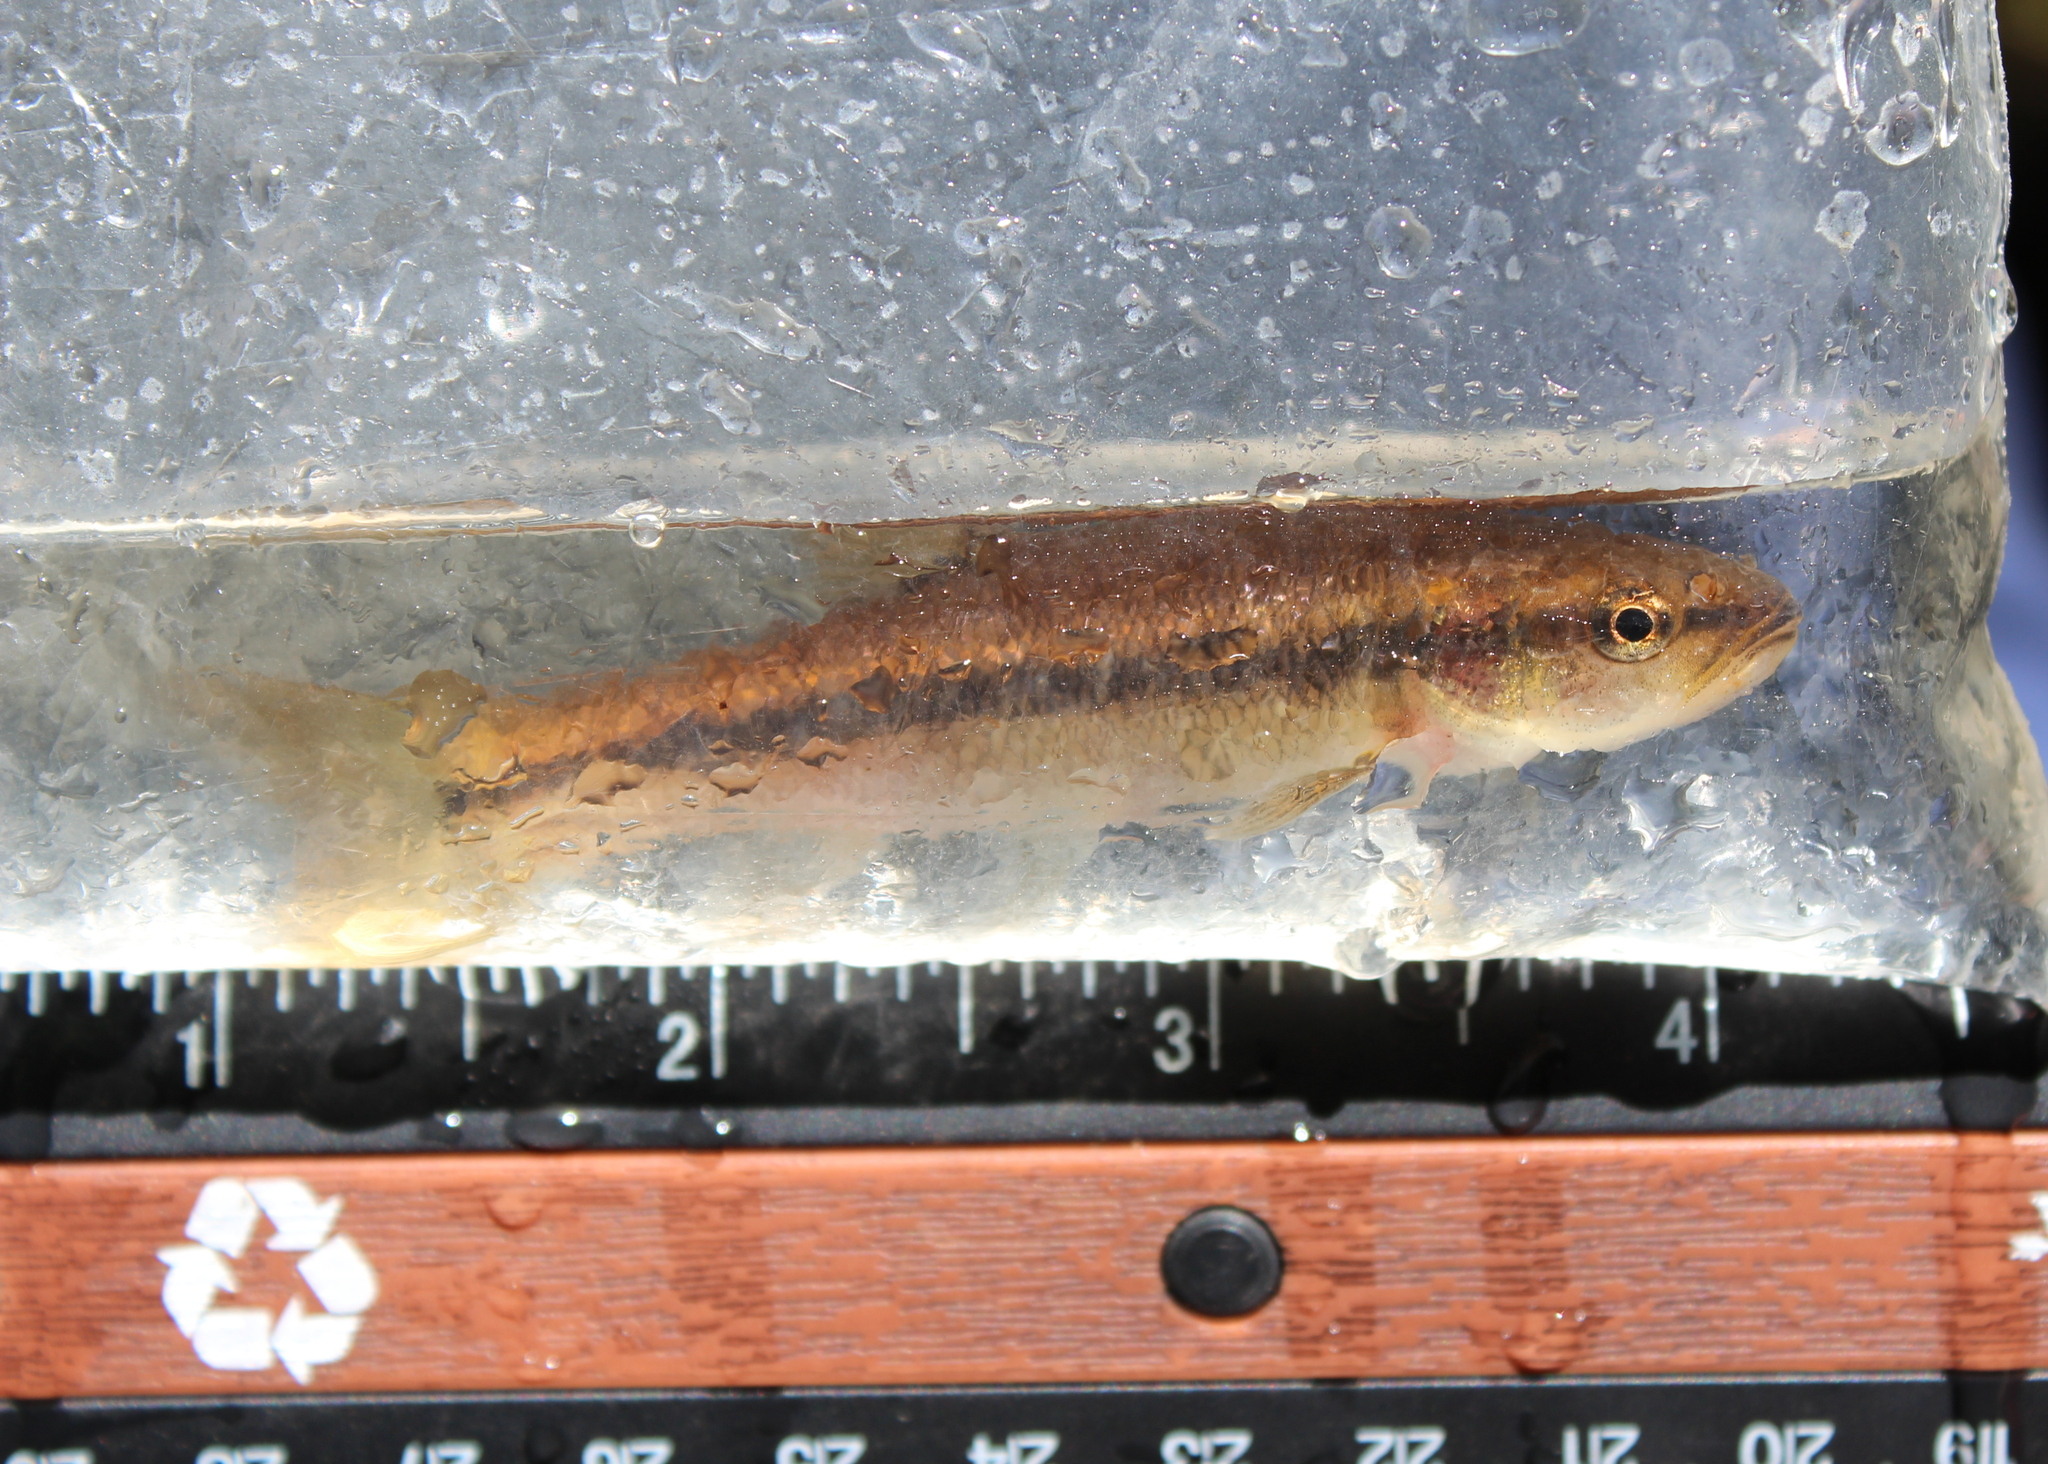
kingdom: Animalia
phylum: Chordata
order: Cypriniformes
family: Cyprinidae
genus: Semotilus
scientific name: Semotilus atromaculatus
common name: Creek chub
